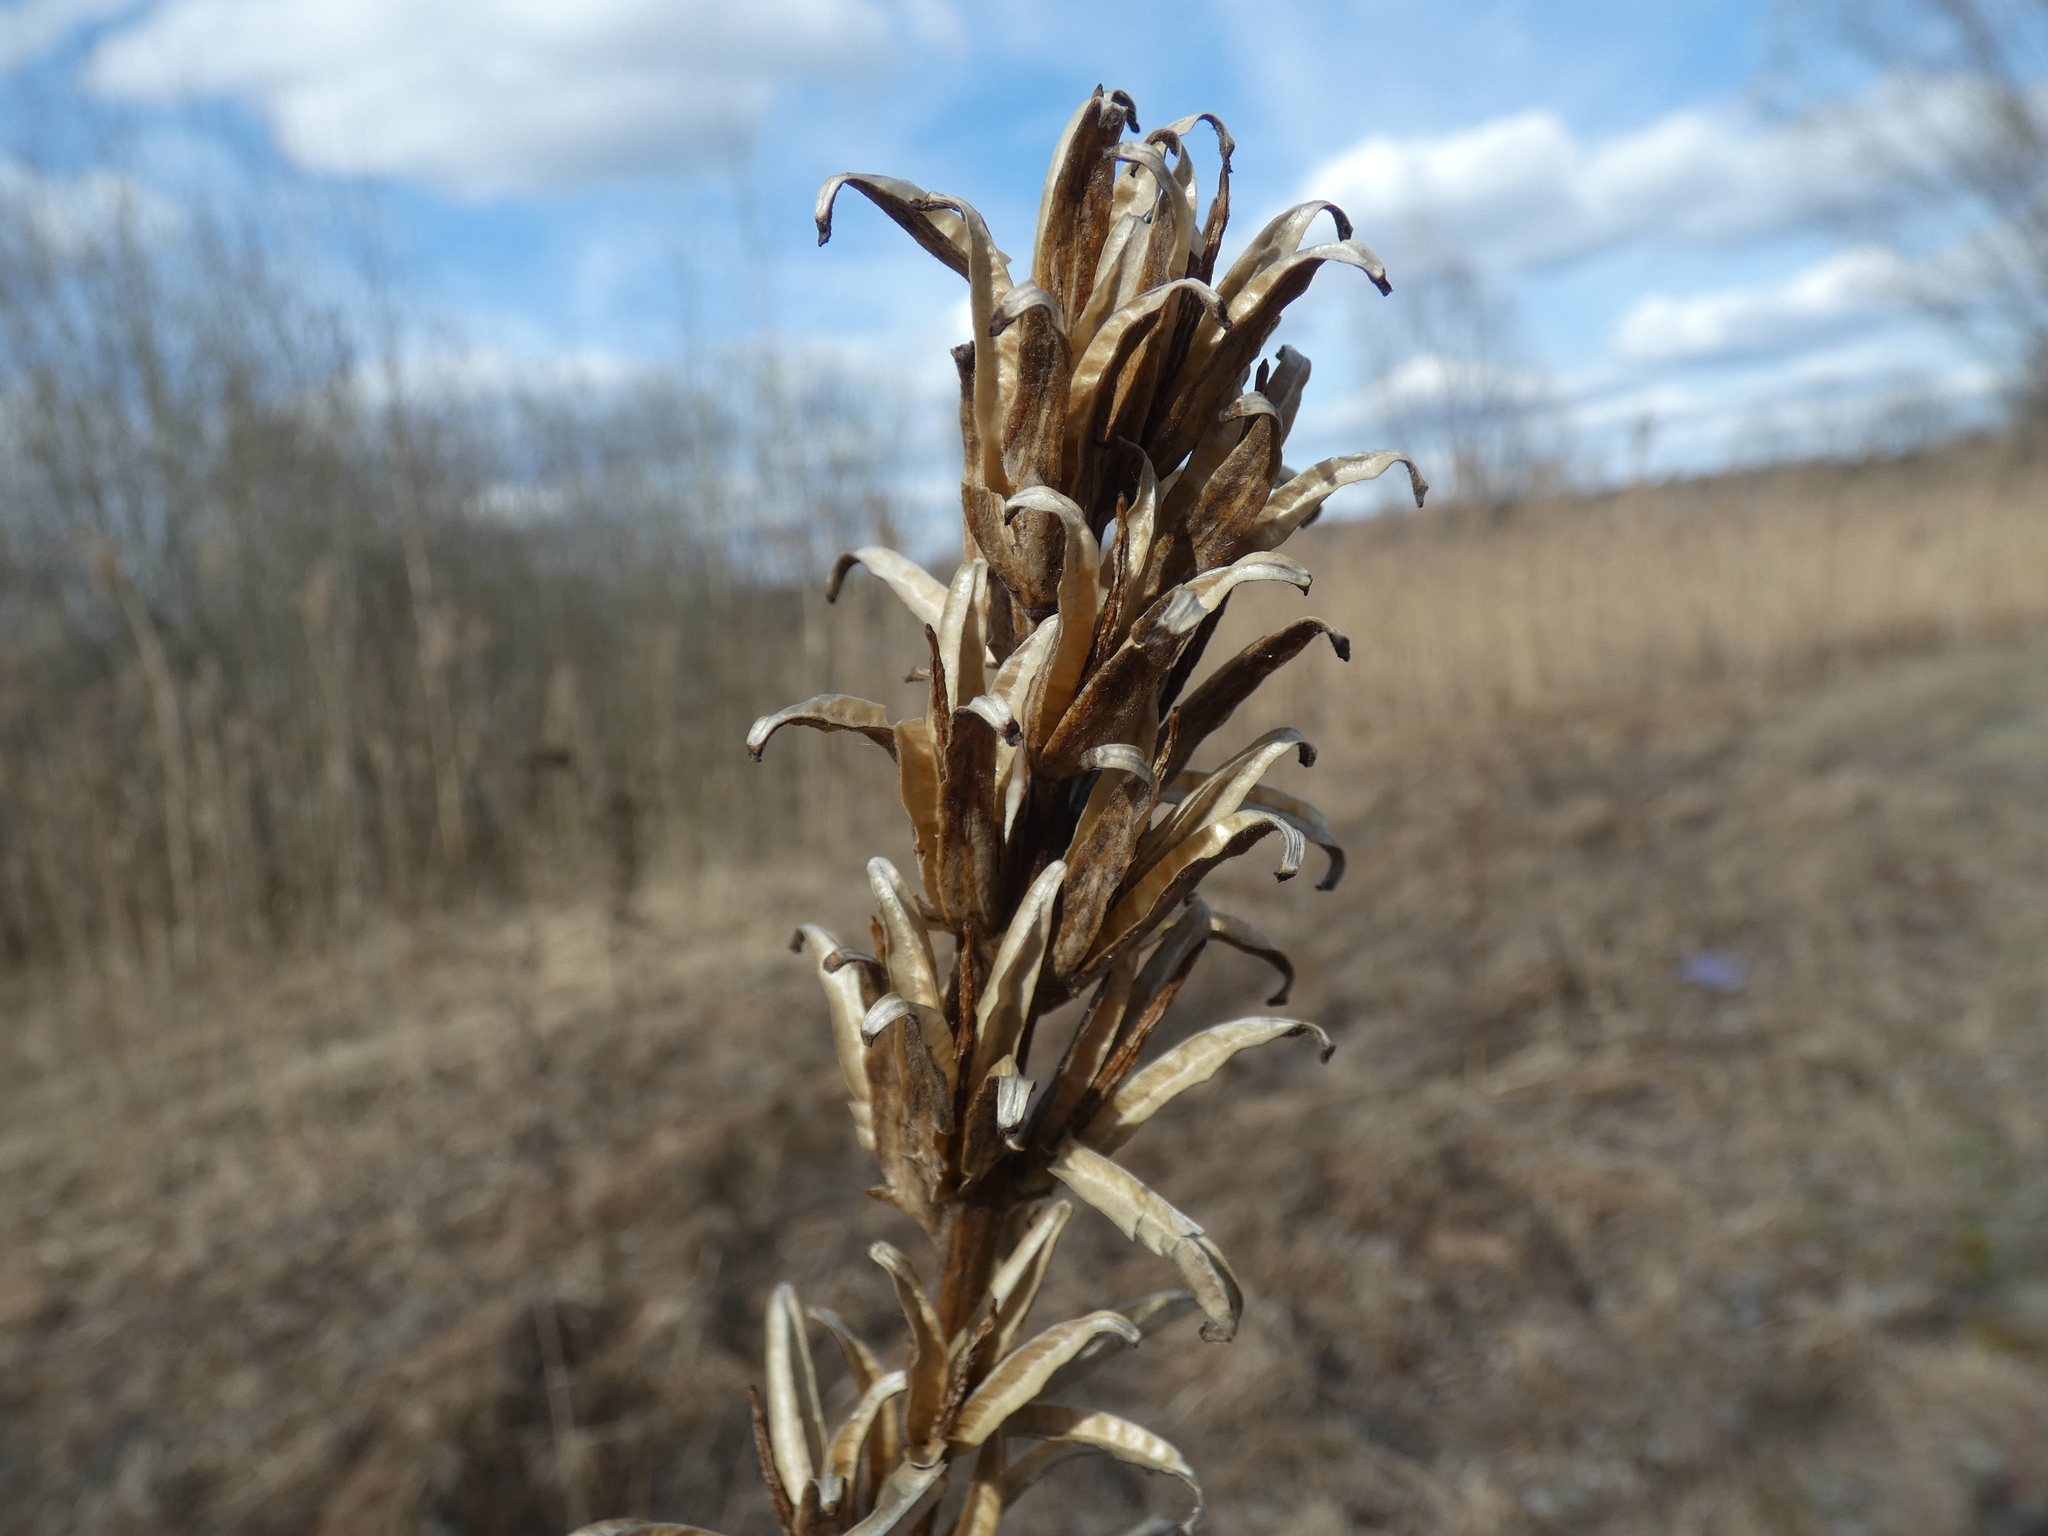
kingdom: Plantae
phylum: Tracheophyta
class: Magnoliopsida
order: Myrtales
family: Onagraceae
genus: Oenothera
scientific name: Oenothera
